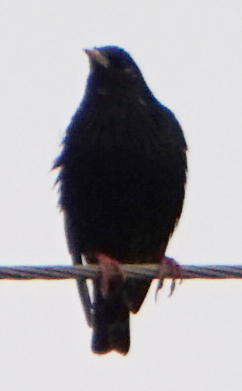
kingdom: Animalia
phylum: Chordata
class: Aves
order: Passeriformes
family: Sturnidae
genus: Sturnus
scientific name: Sturnus vulgaris
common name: Common starling
